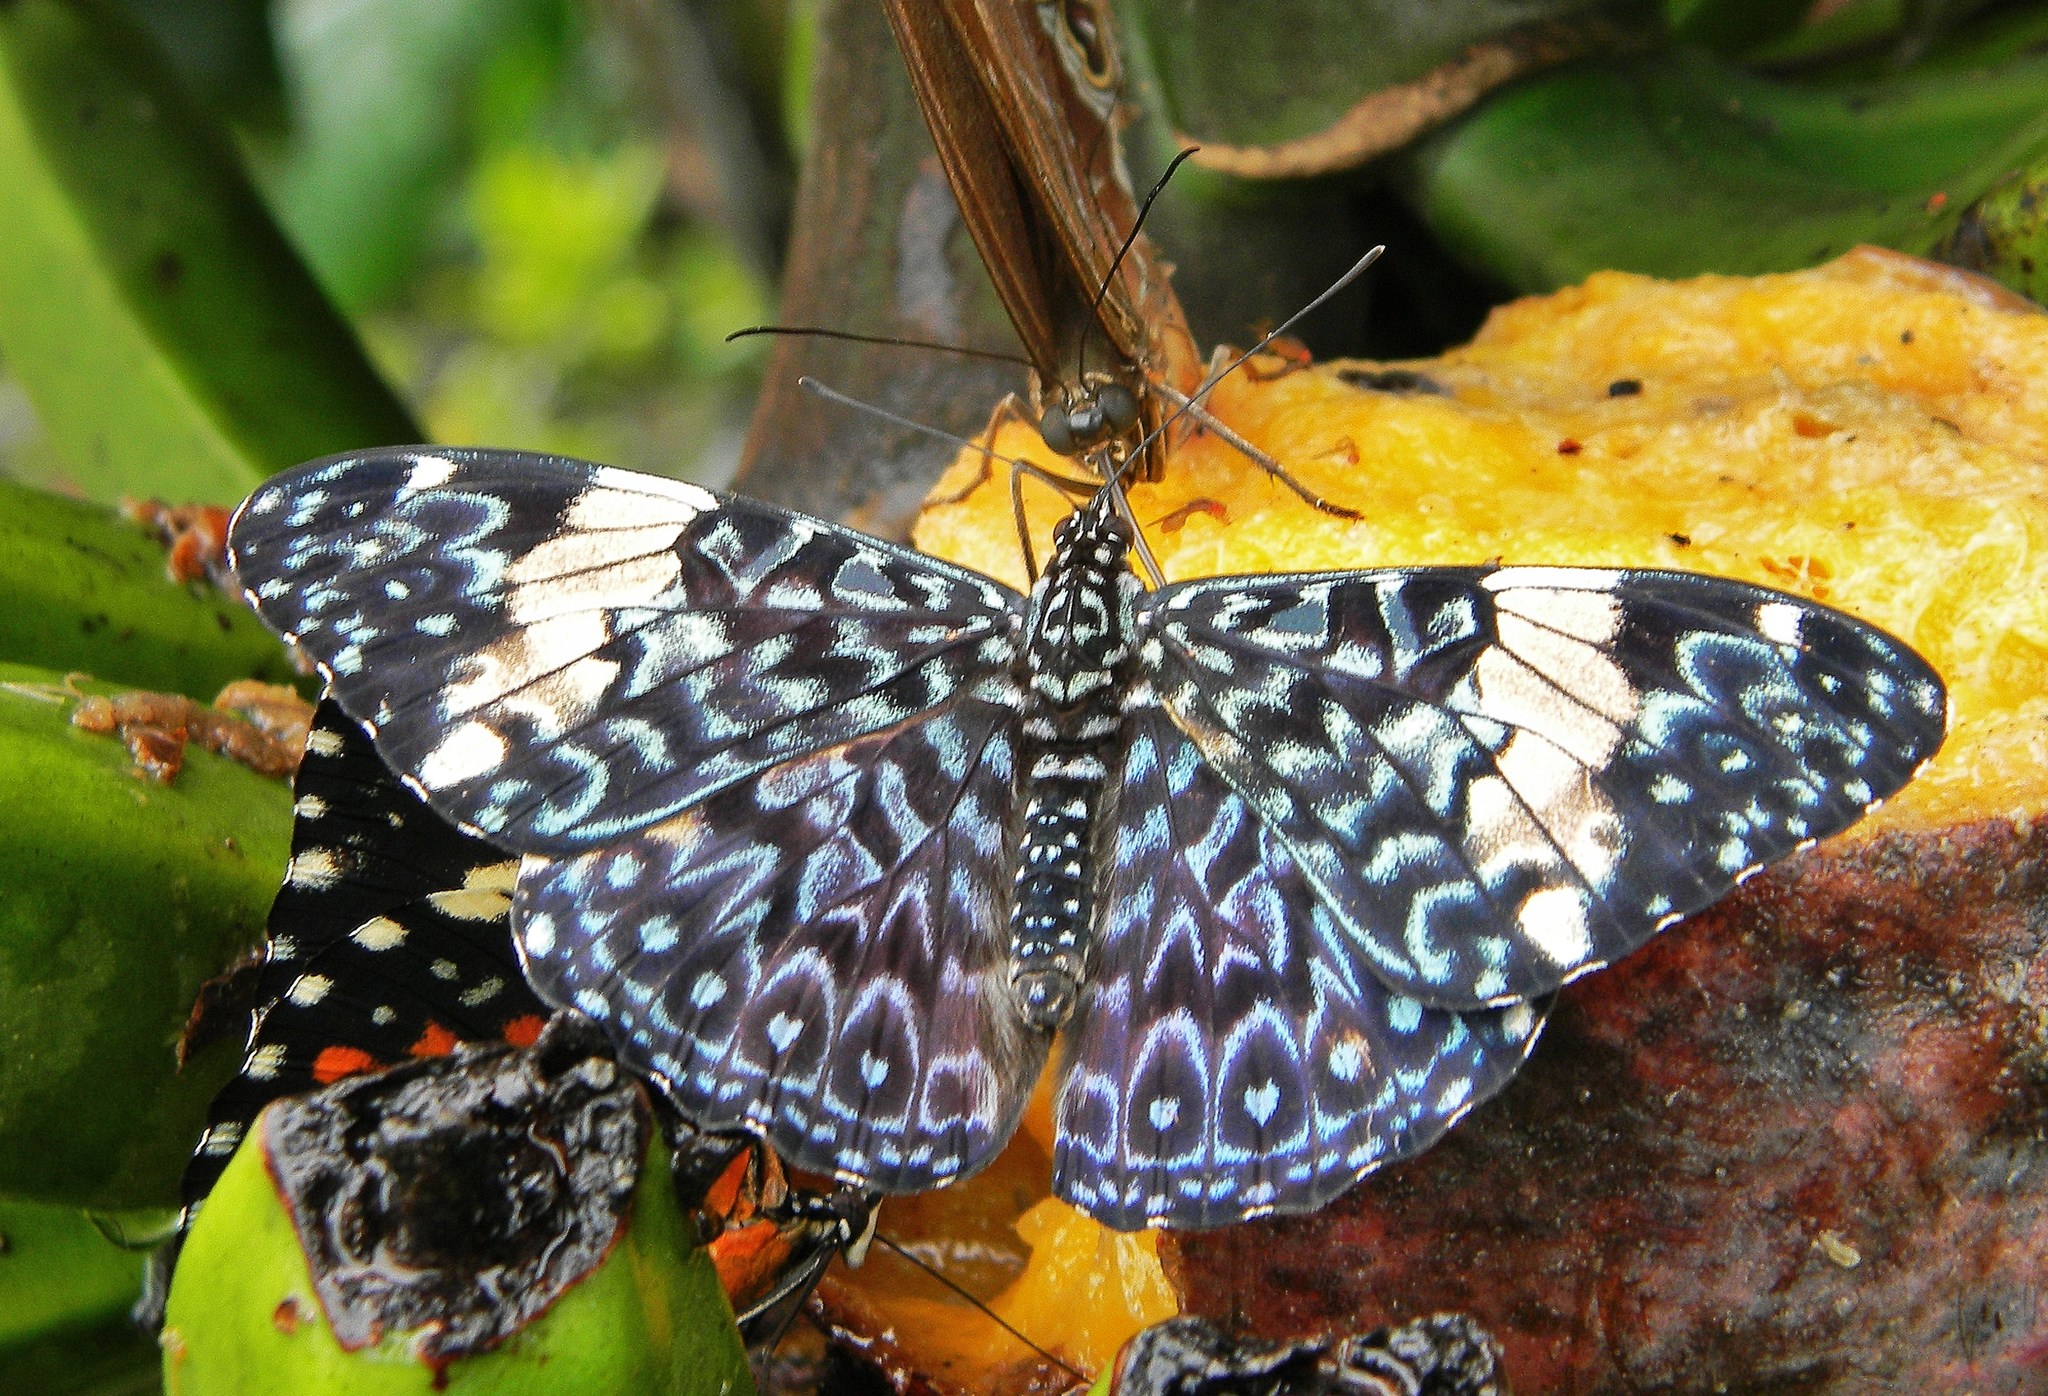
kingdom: Animalia
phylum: Arthropoda
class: Insecta
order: Lepidoptera
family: Nymphalidae
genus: Hamadryas
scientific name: Hamadryas amphinome
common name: Red cracker
